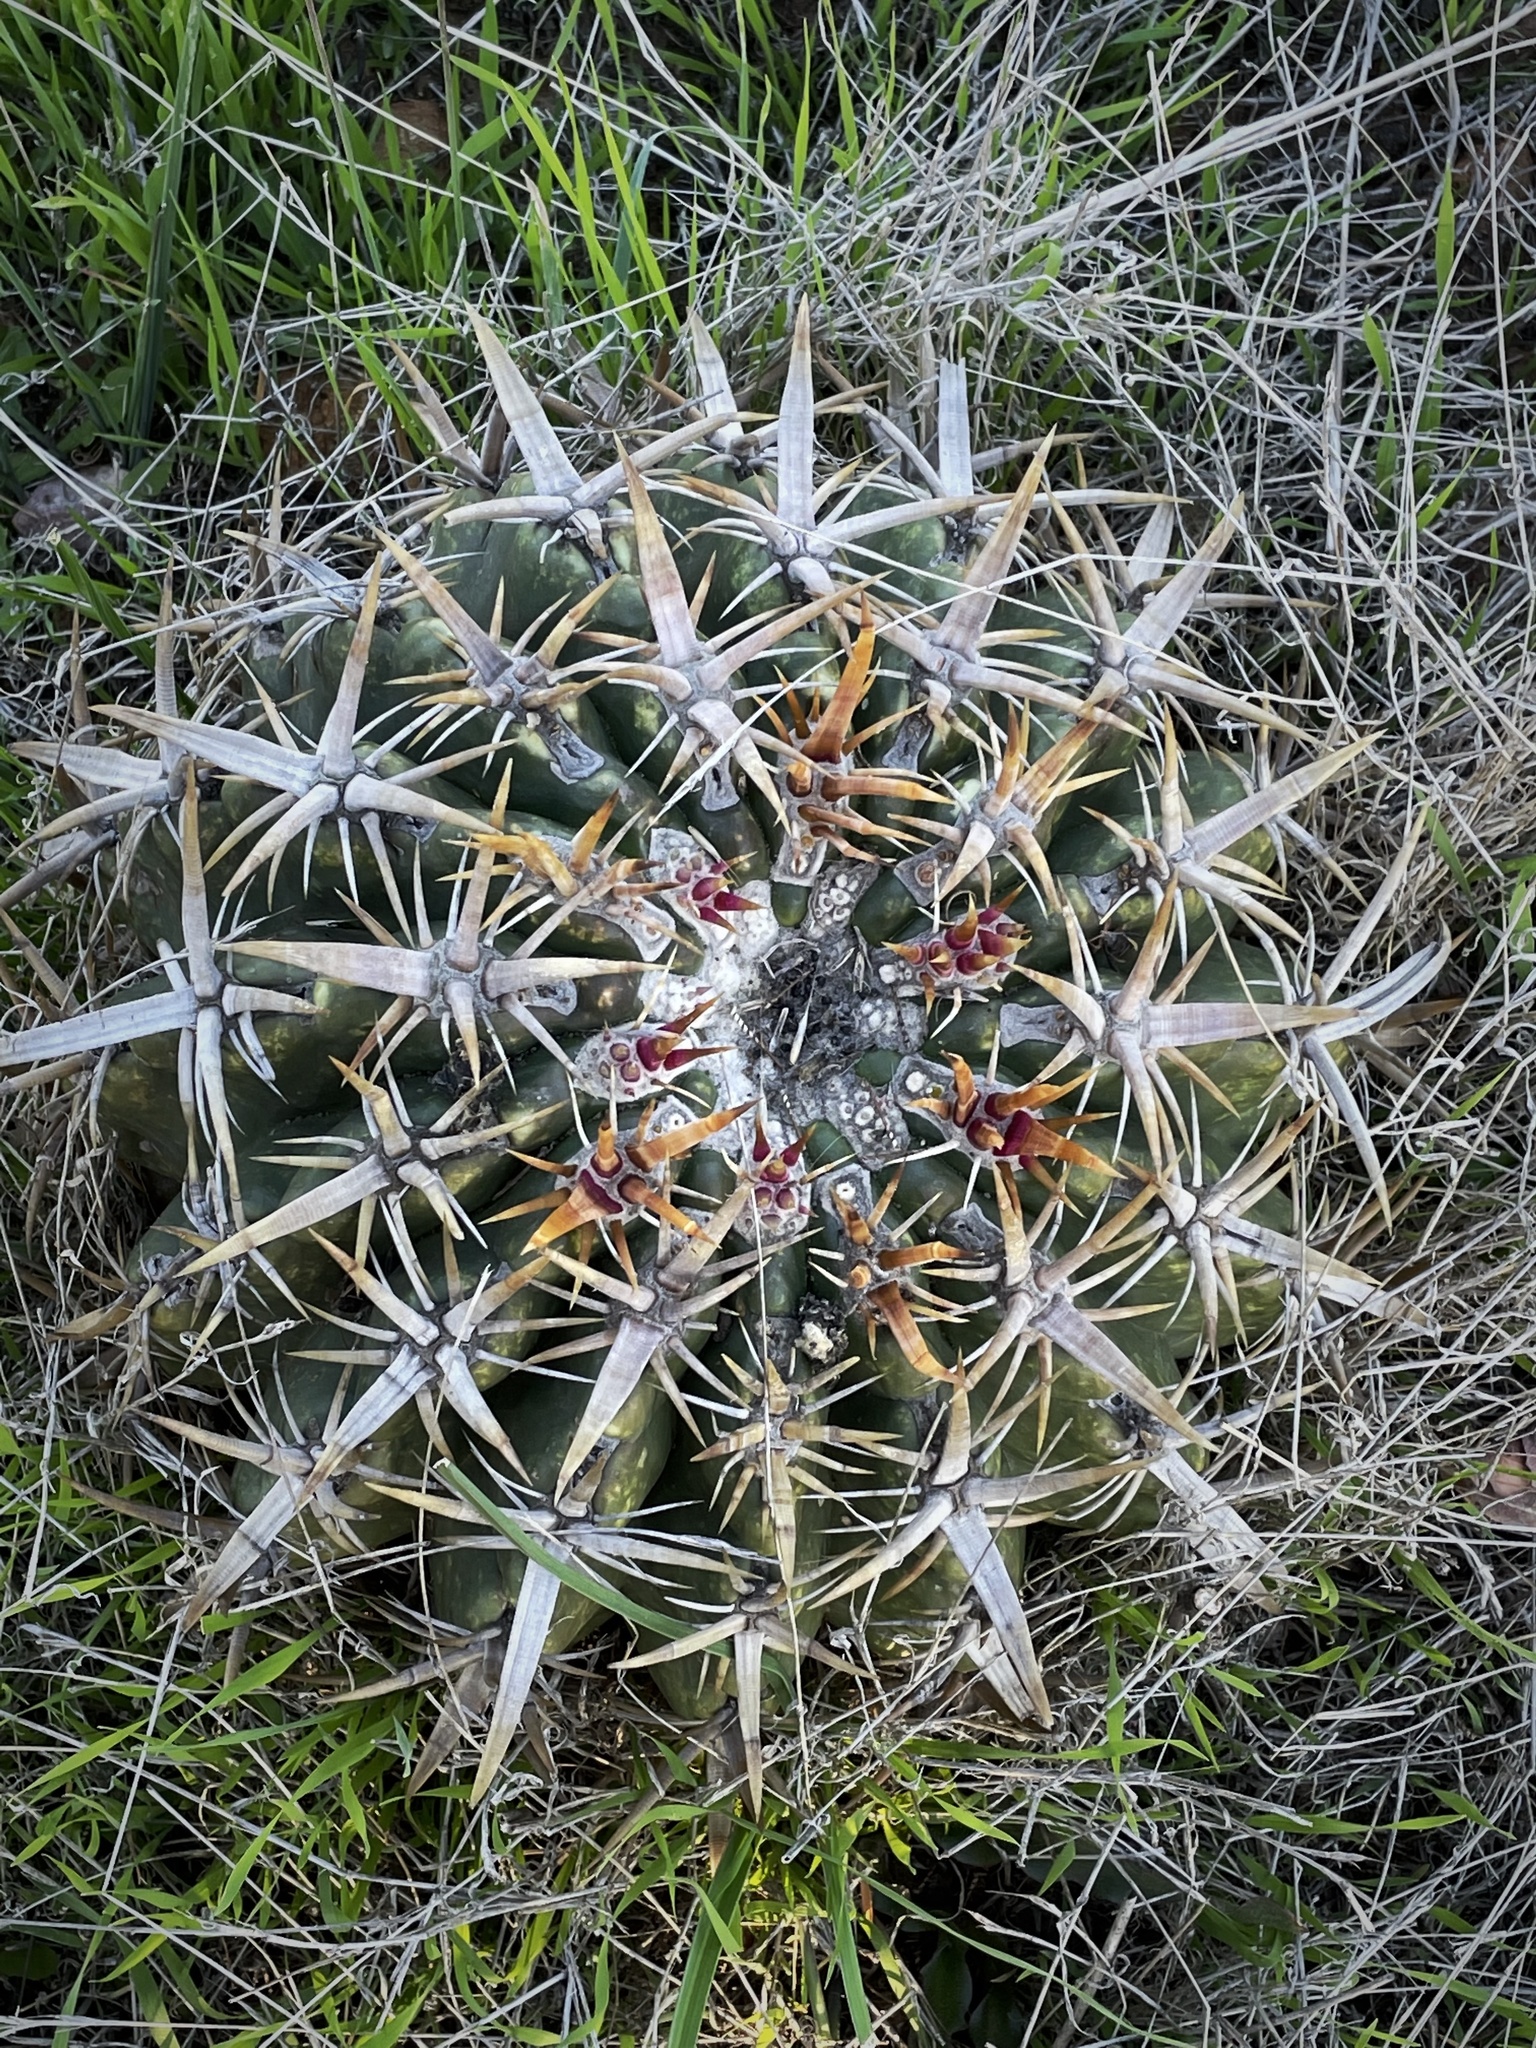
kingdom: Plantae
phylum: Tracheophyta
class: Magnoliopsida
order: Caryophyllales
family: Cactaceae
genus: Ferocactus
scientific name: Ferocactus viridescens
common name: San diego barrel cactus
